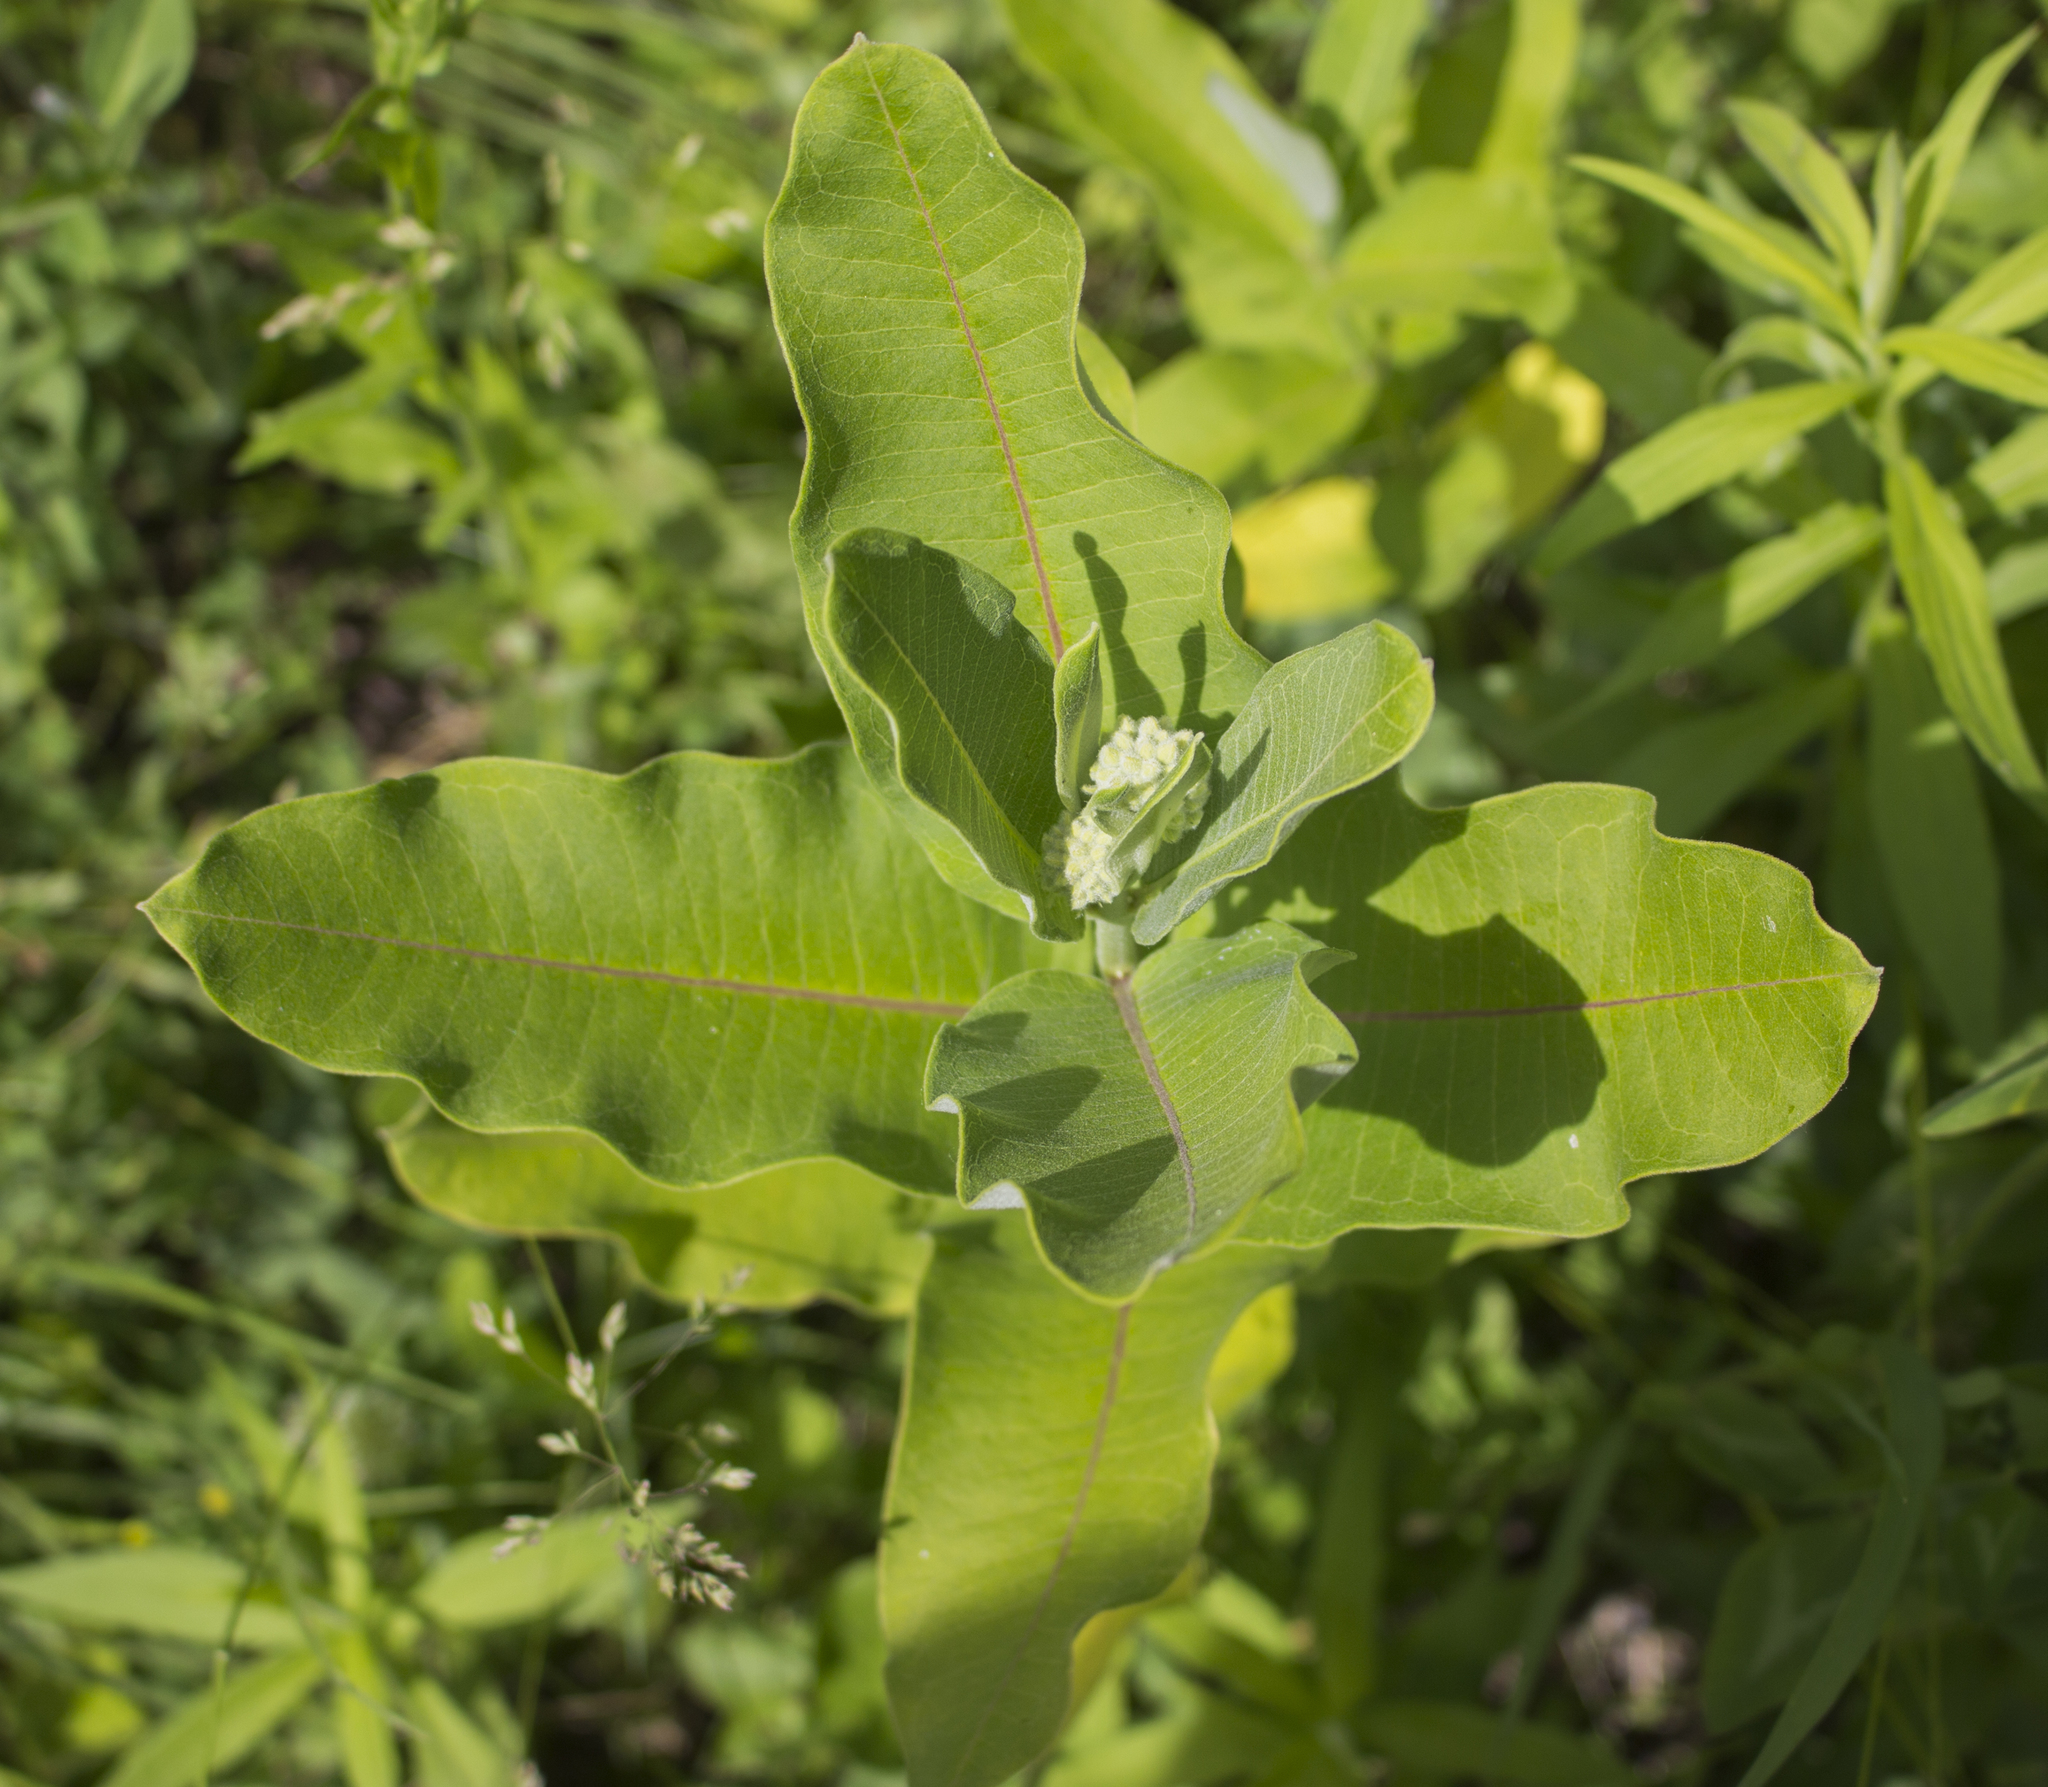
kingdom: Plantae
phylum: Tracheophyta
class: Magnoliopsida
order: Gentianales
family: Apocynaceae
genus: Asclepias
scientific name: Asclepias syriaca
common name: Common milkweed
